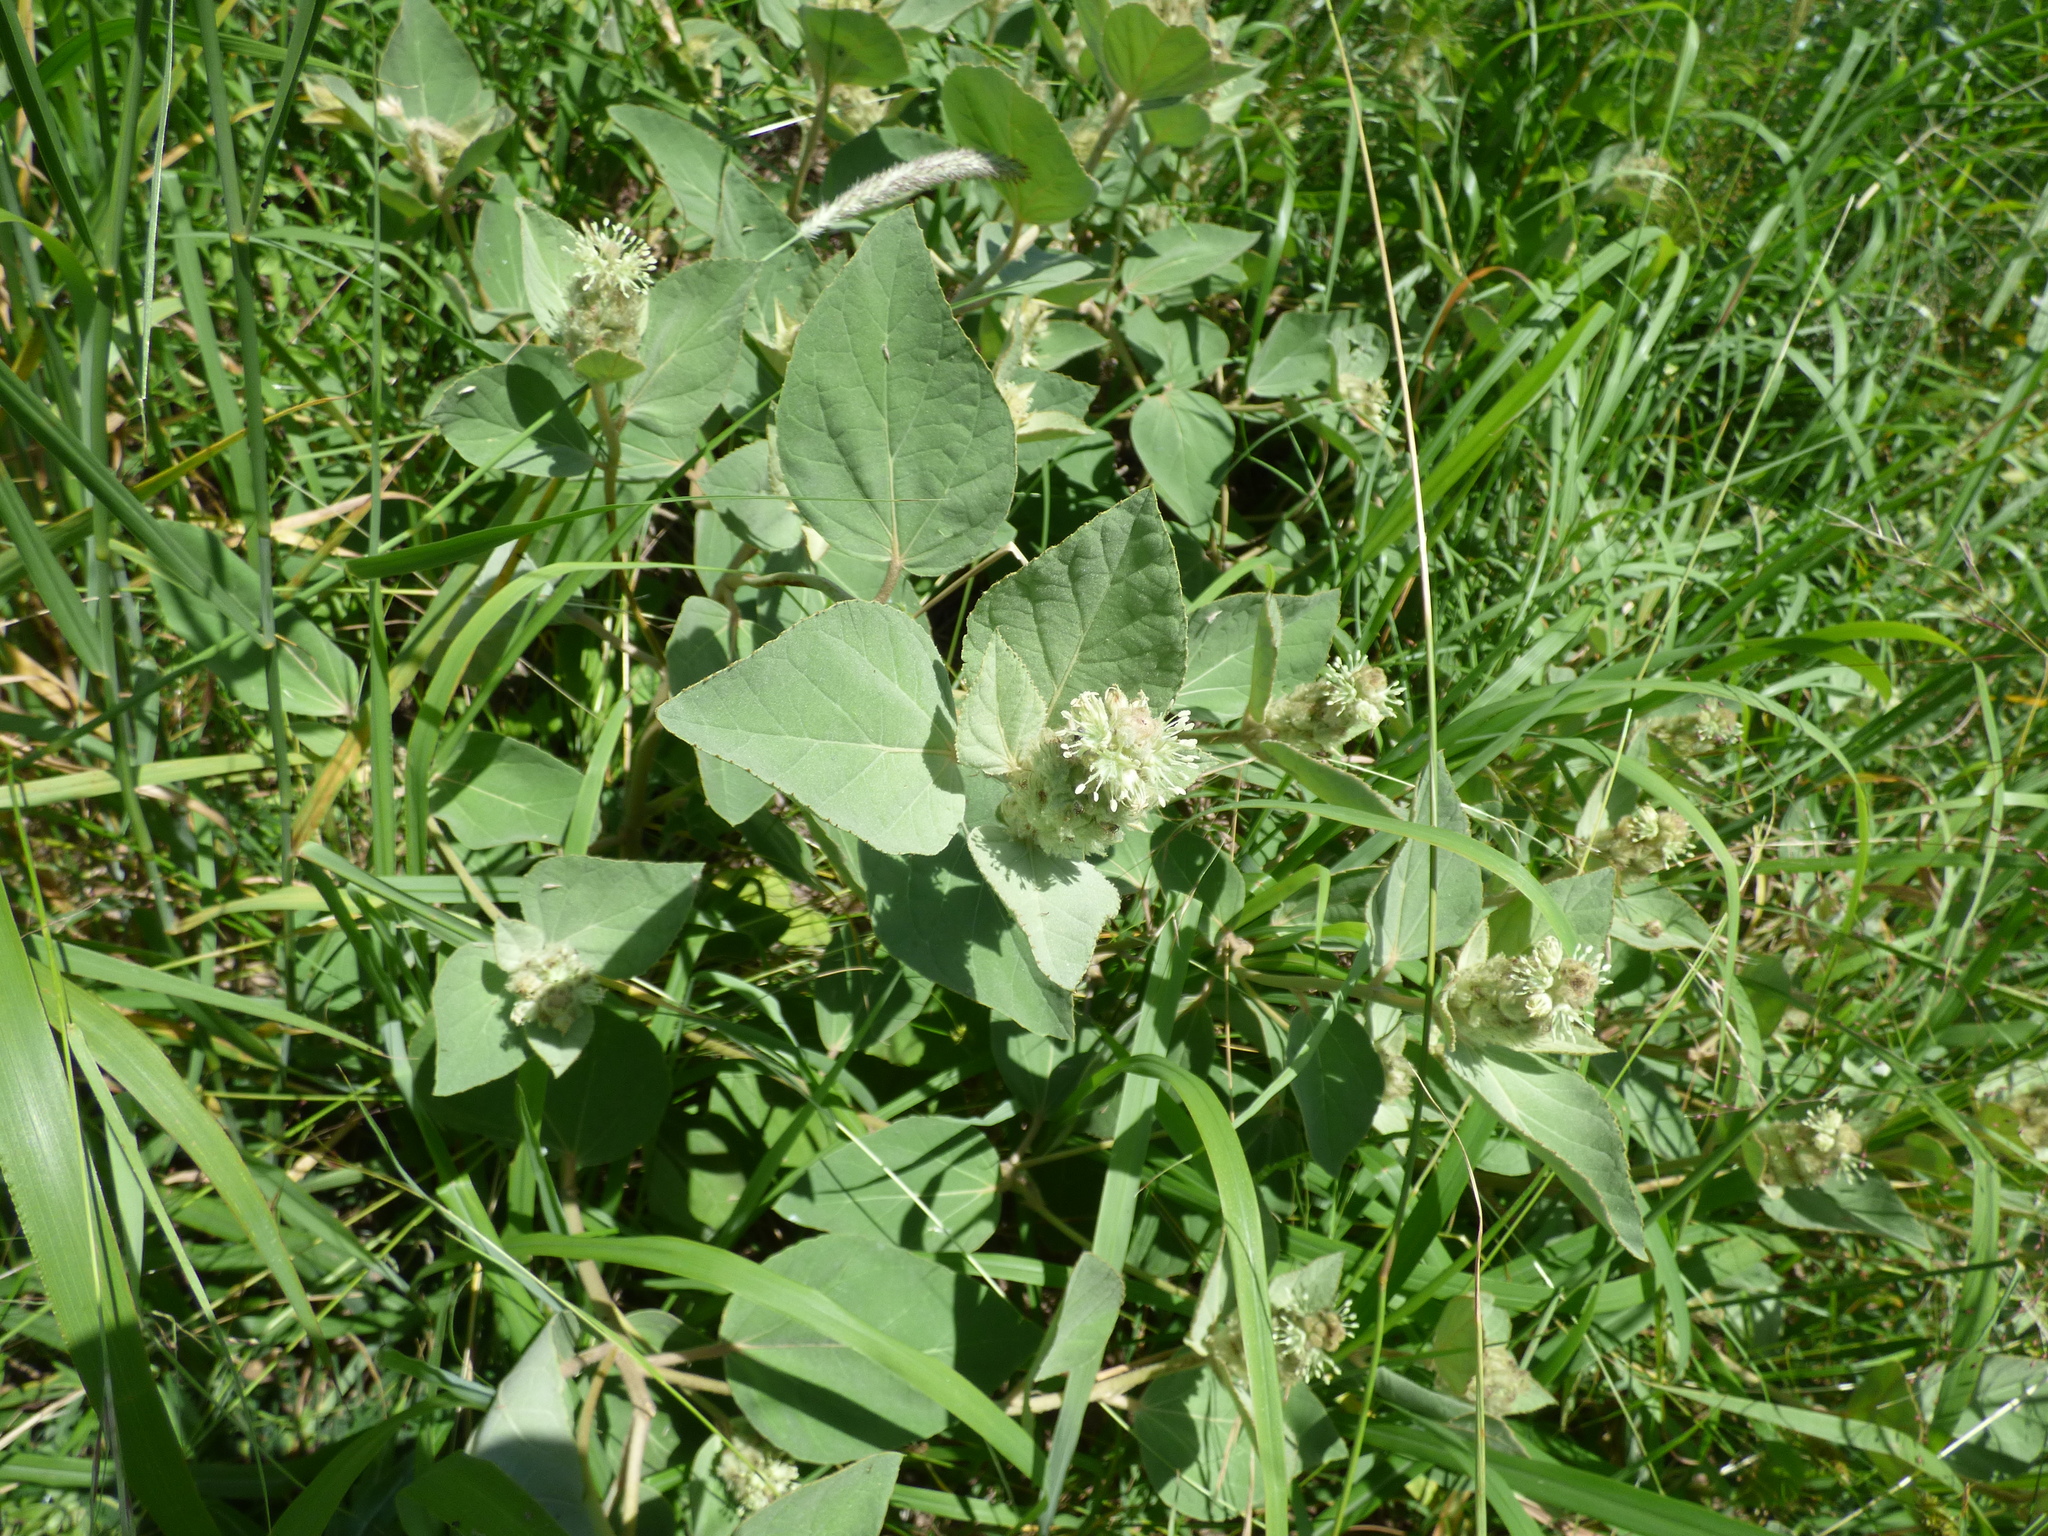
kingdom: Plantae
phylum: Tracheophyta
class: Magnoliopsida
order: Malpighiales
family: Euphorbiaceae
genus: Croton
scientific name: Croton subpannosus
